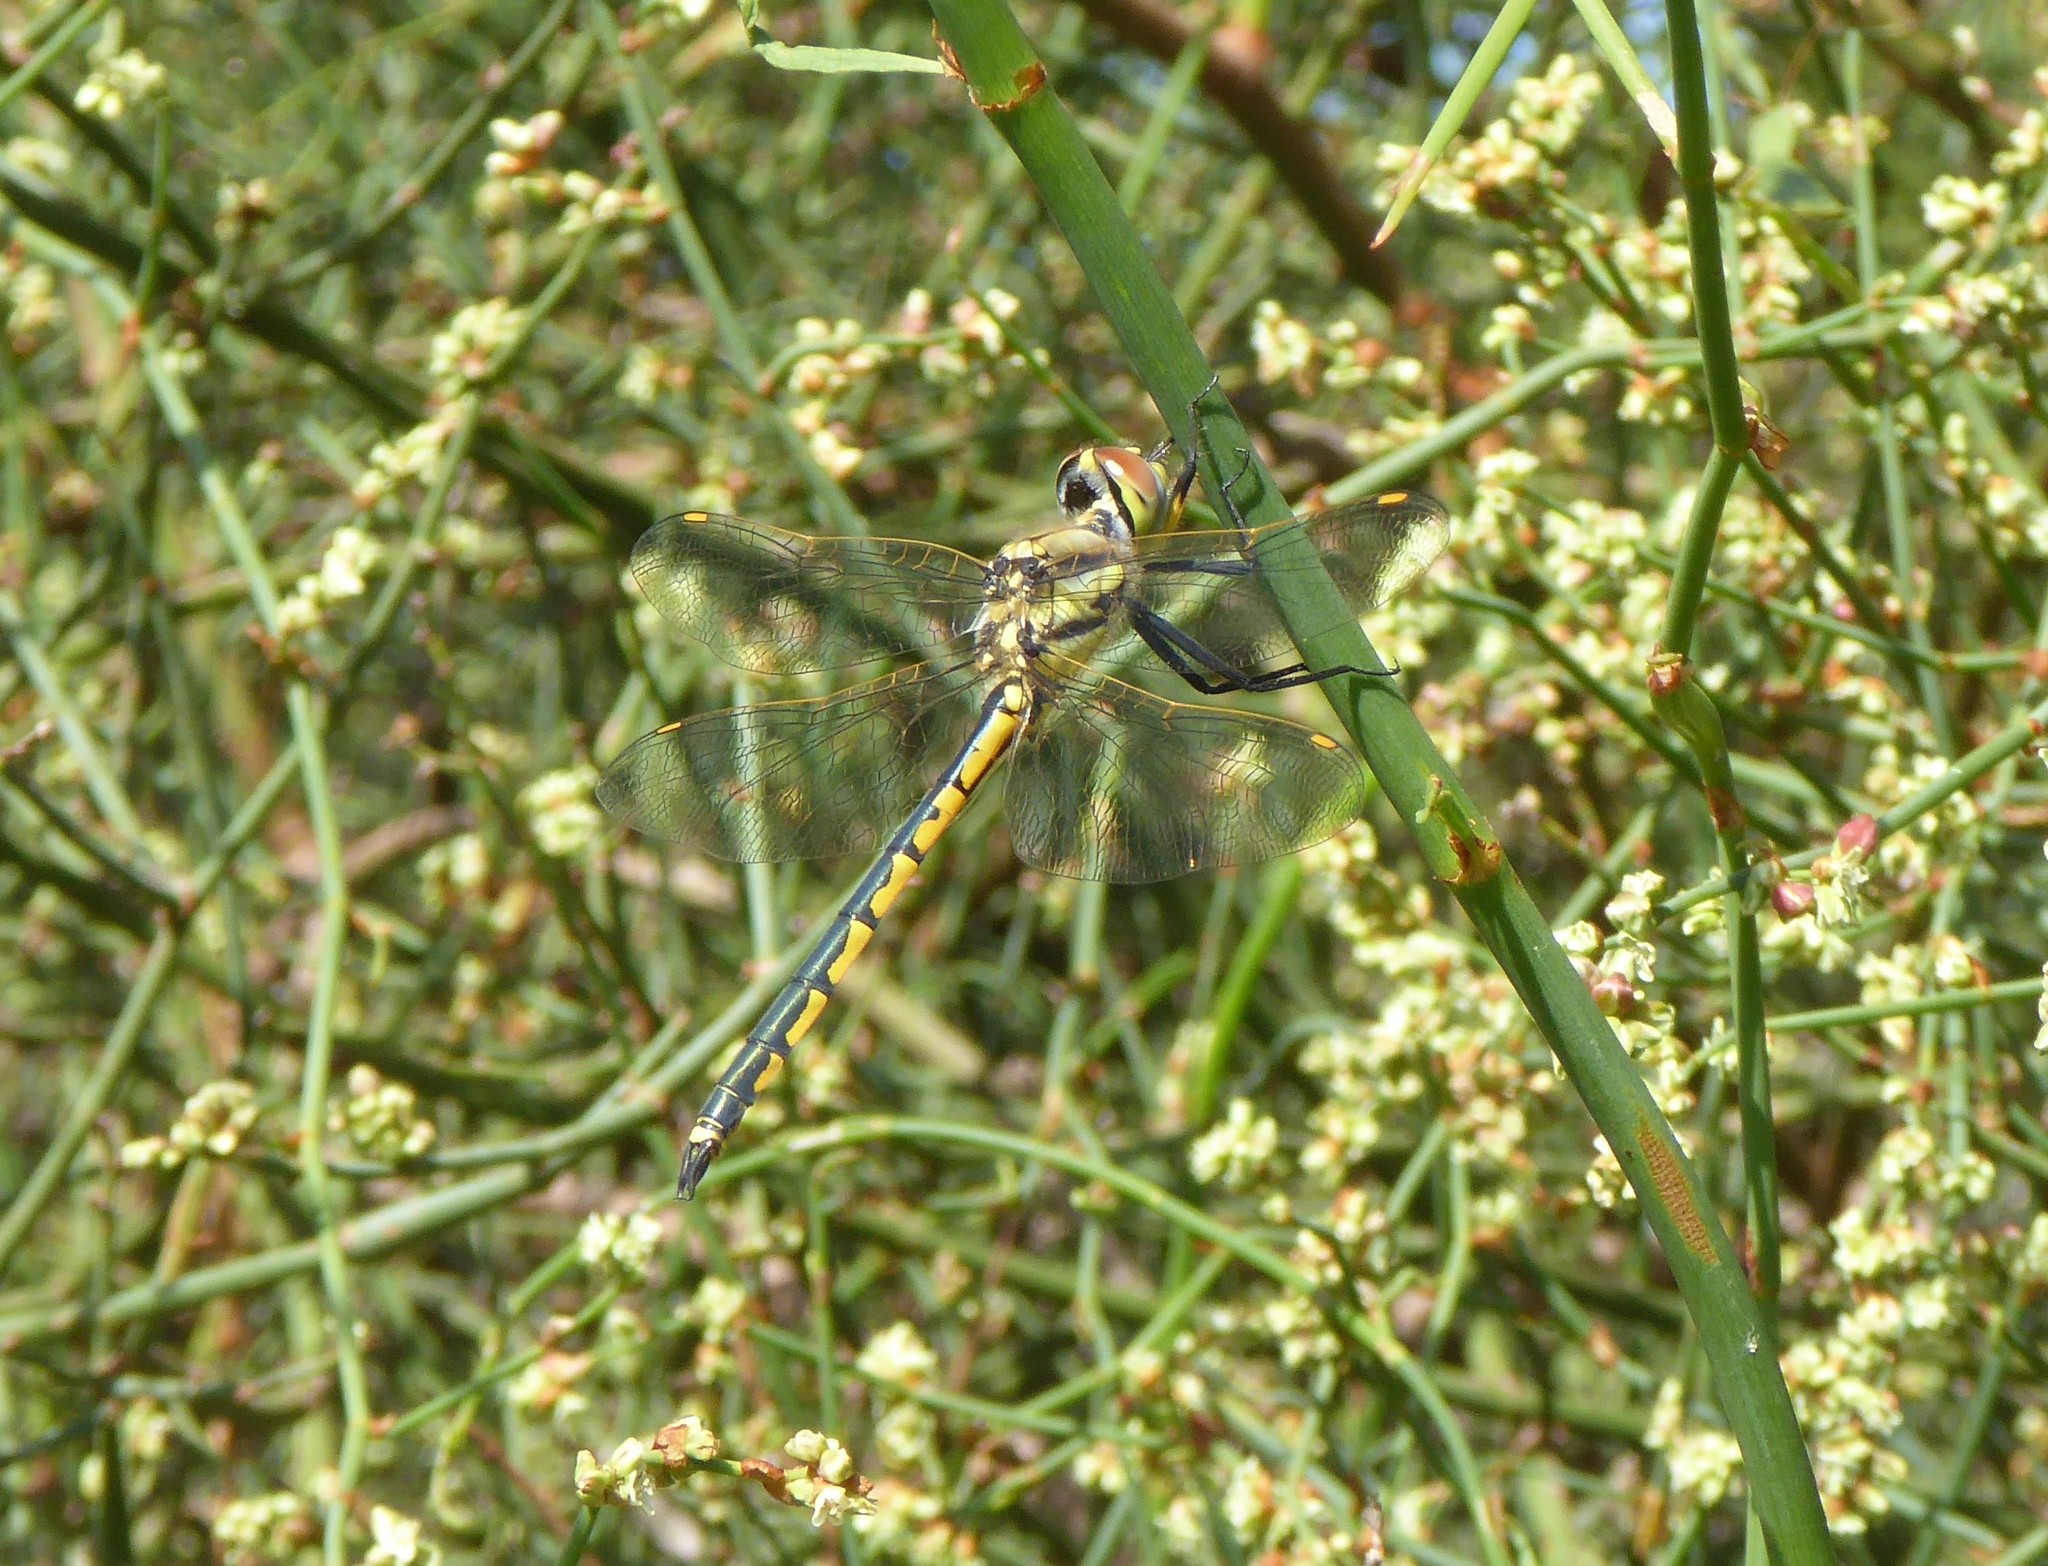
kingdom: Animalia
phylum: Arthropoda
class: Insecta
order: Odonata
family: Corduliidae
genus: Hemicordulia
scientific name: Hemicordulia tau
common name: Tau emerald
